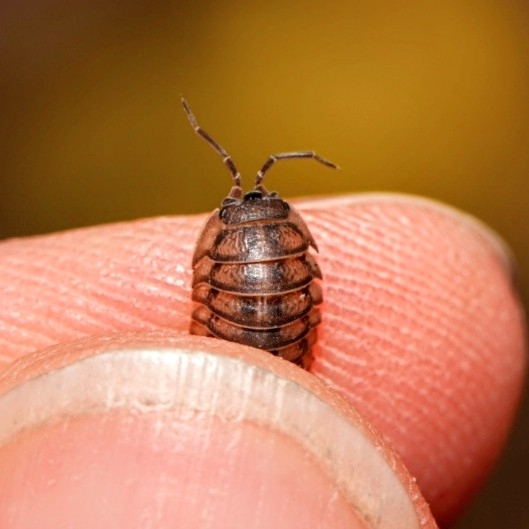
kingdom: Animalia
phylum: Arthropoda
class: Malacostraca
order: Isopoda
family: Armadillidiidae
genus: Armadillidium
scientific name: Armadillidium nasatum
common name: Isopod
